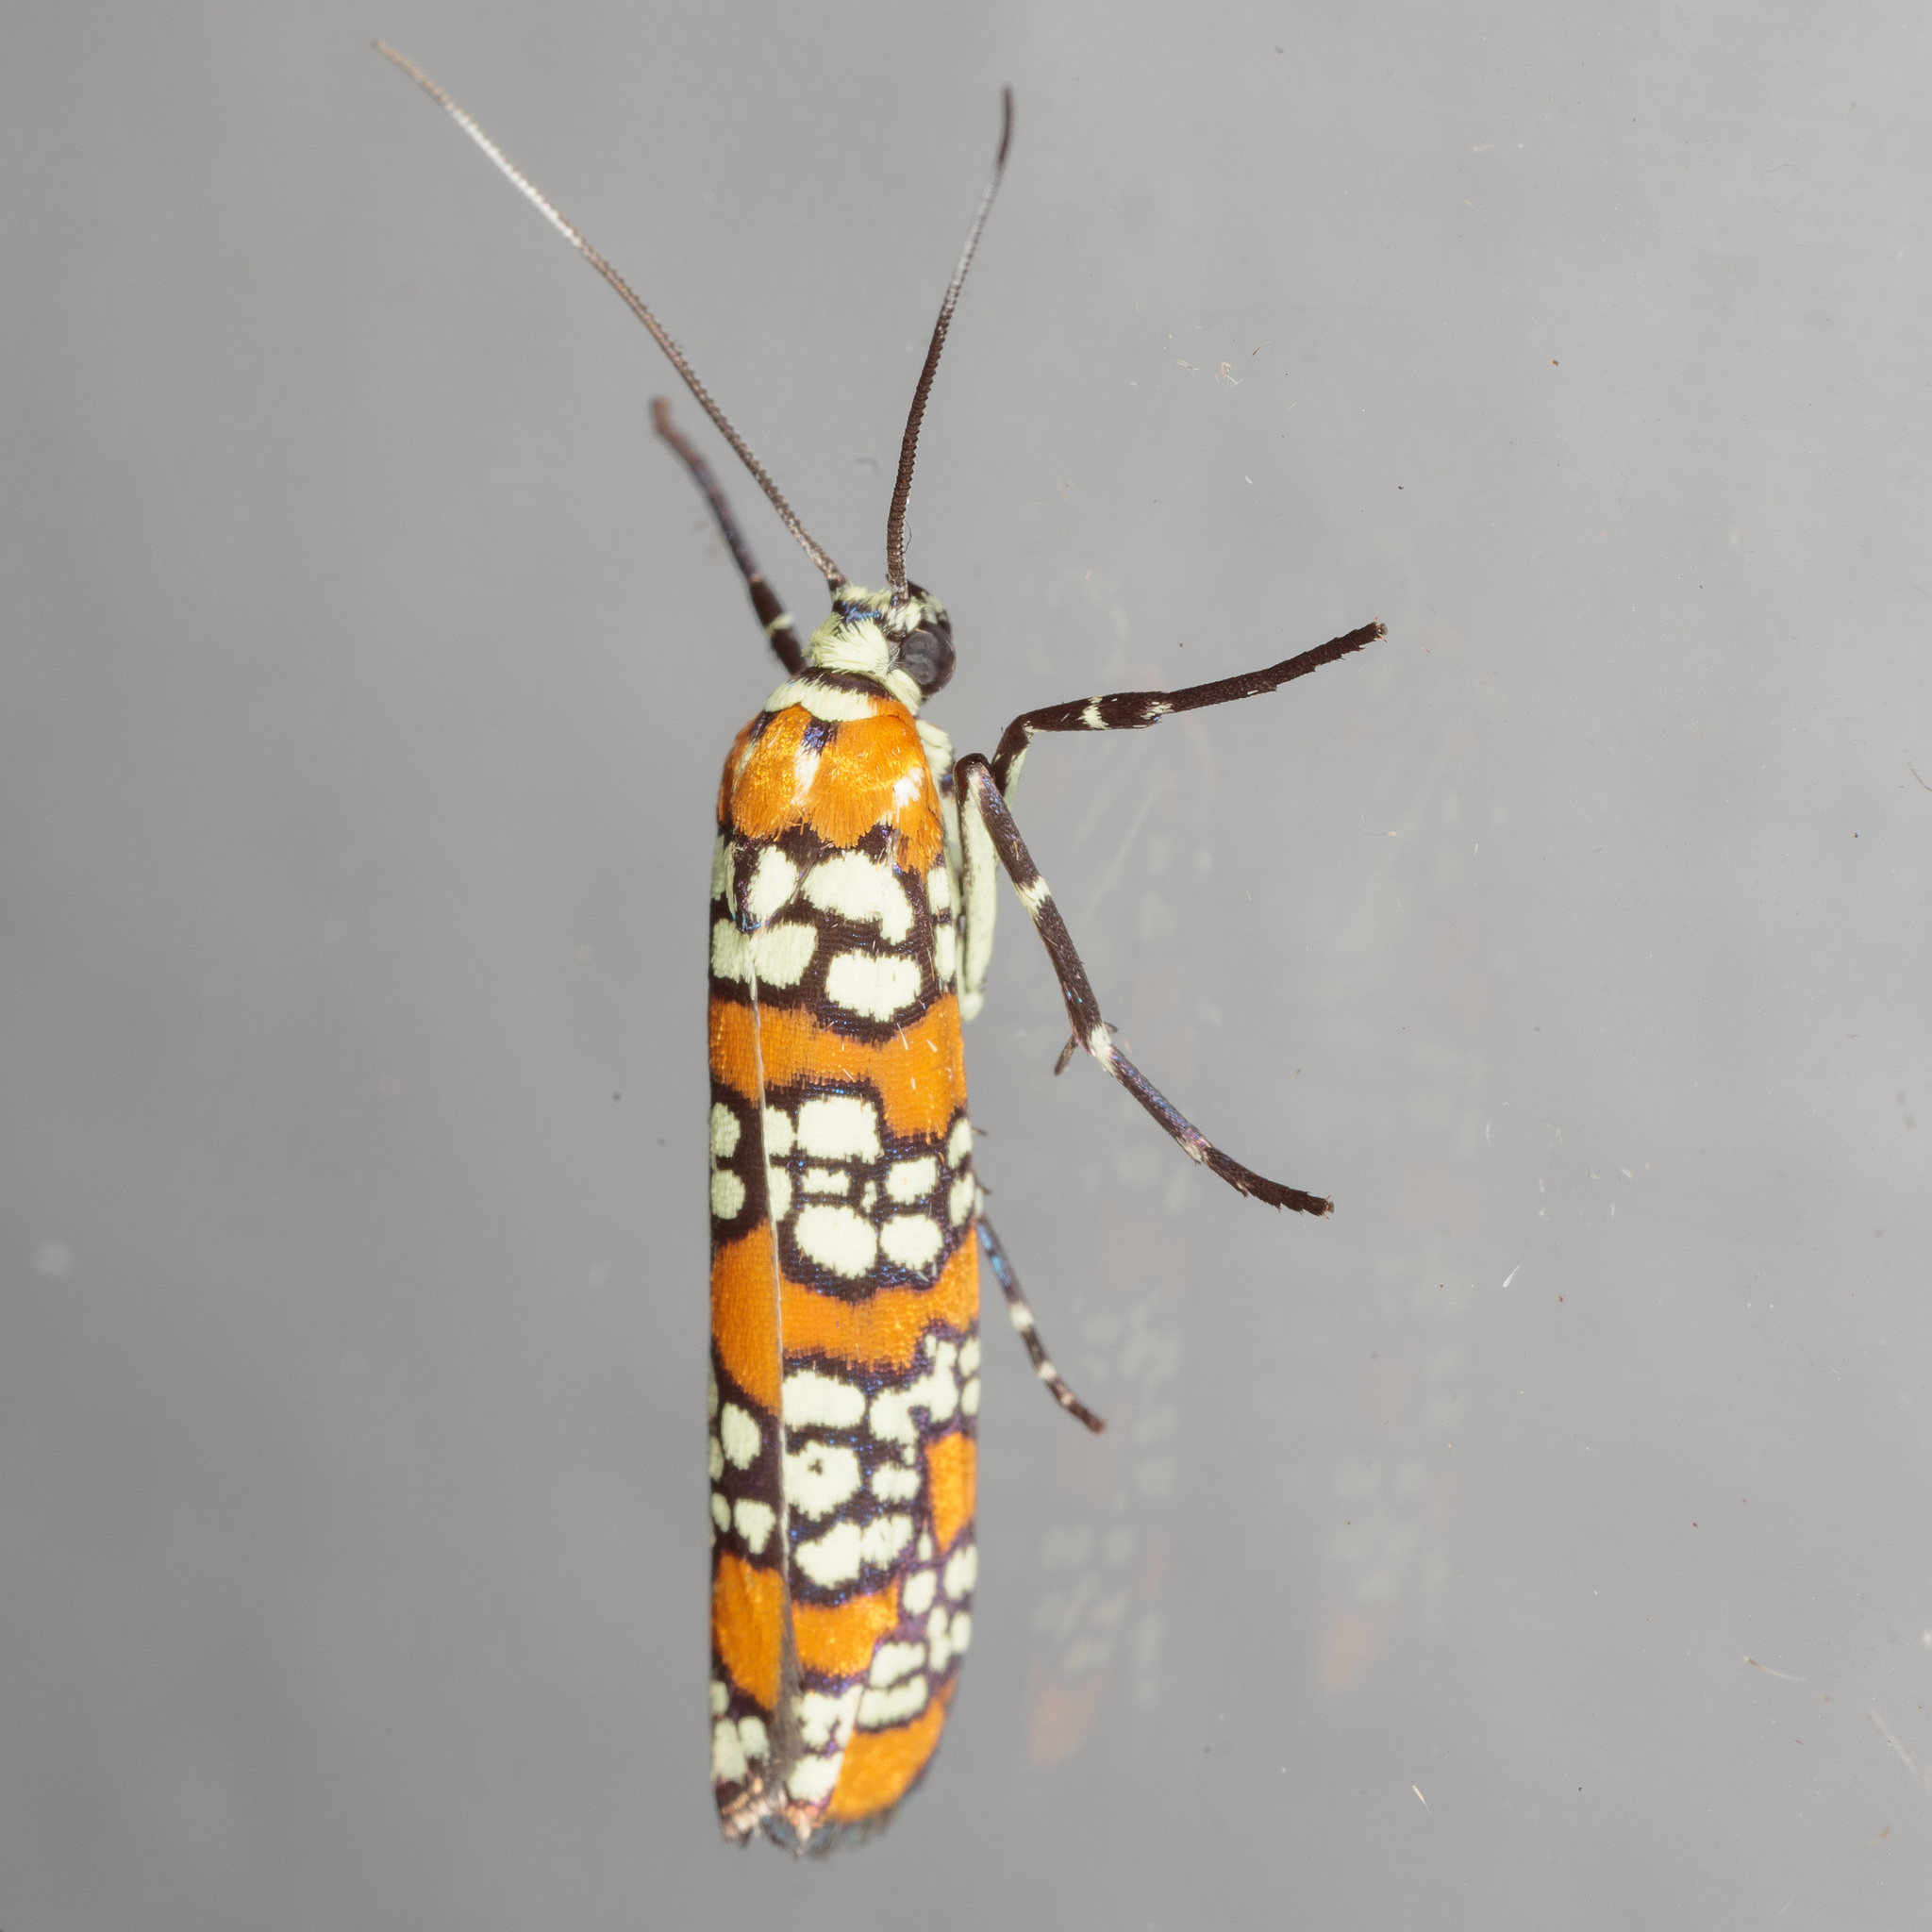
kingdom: Animalia
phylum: Arthropoda
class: Insecta
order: Lepidoptera
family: Attevidae
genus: Atteva
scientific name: Atteva punctella
